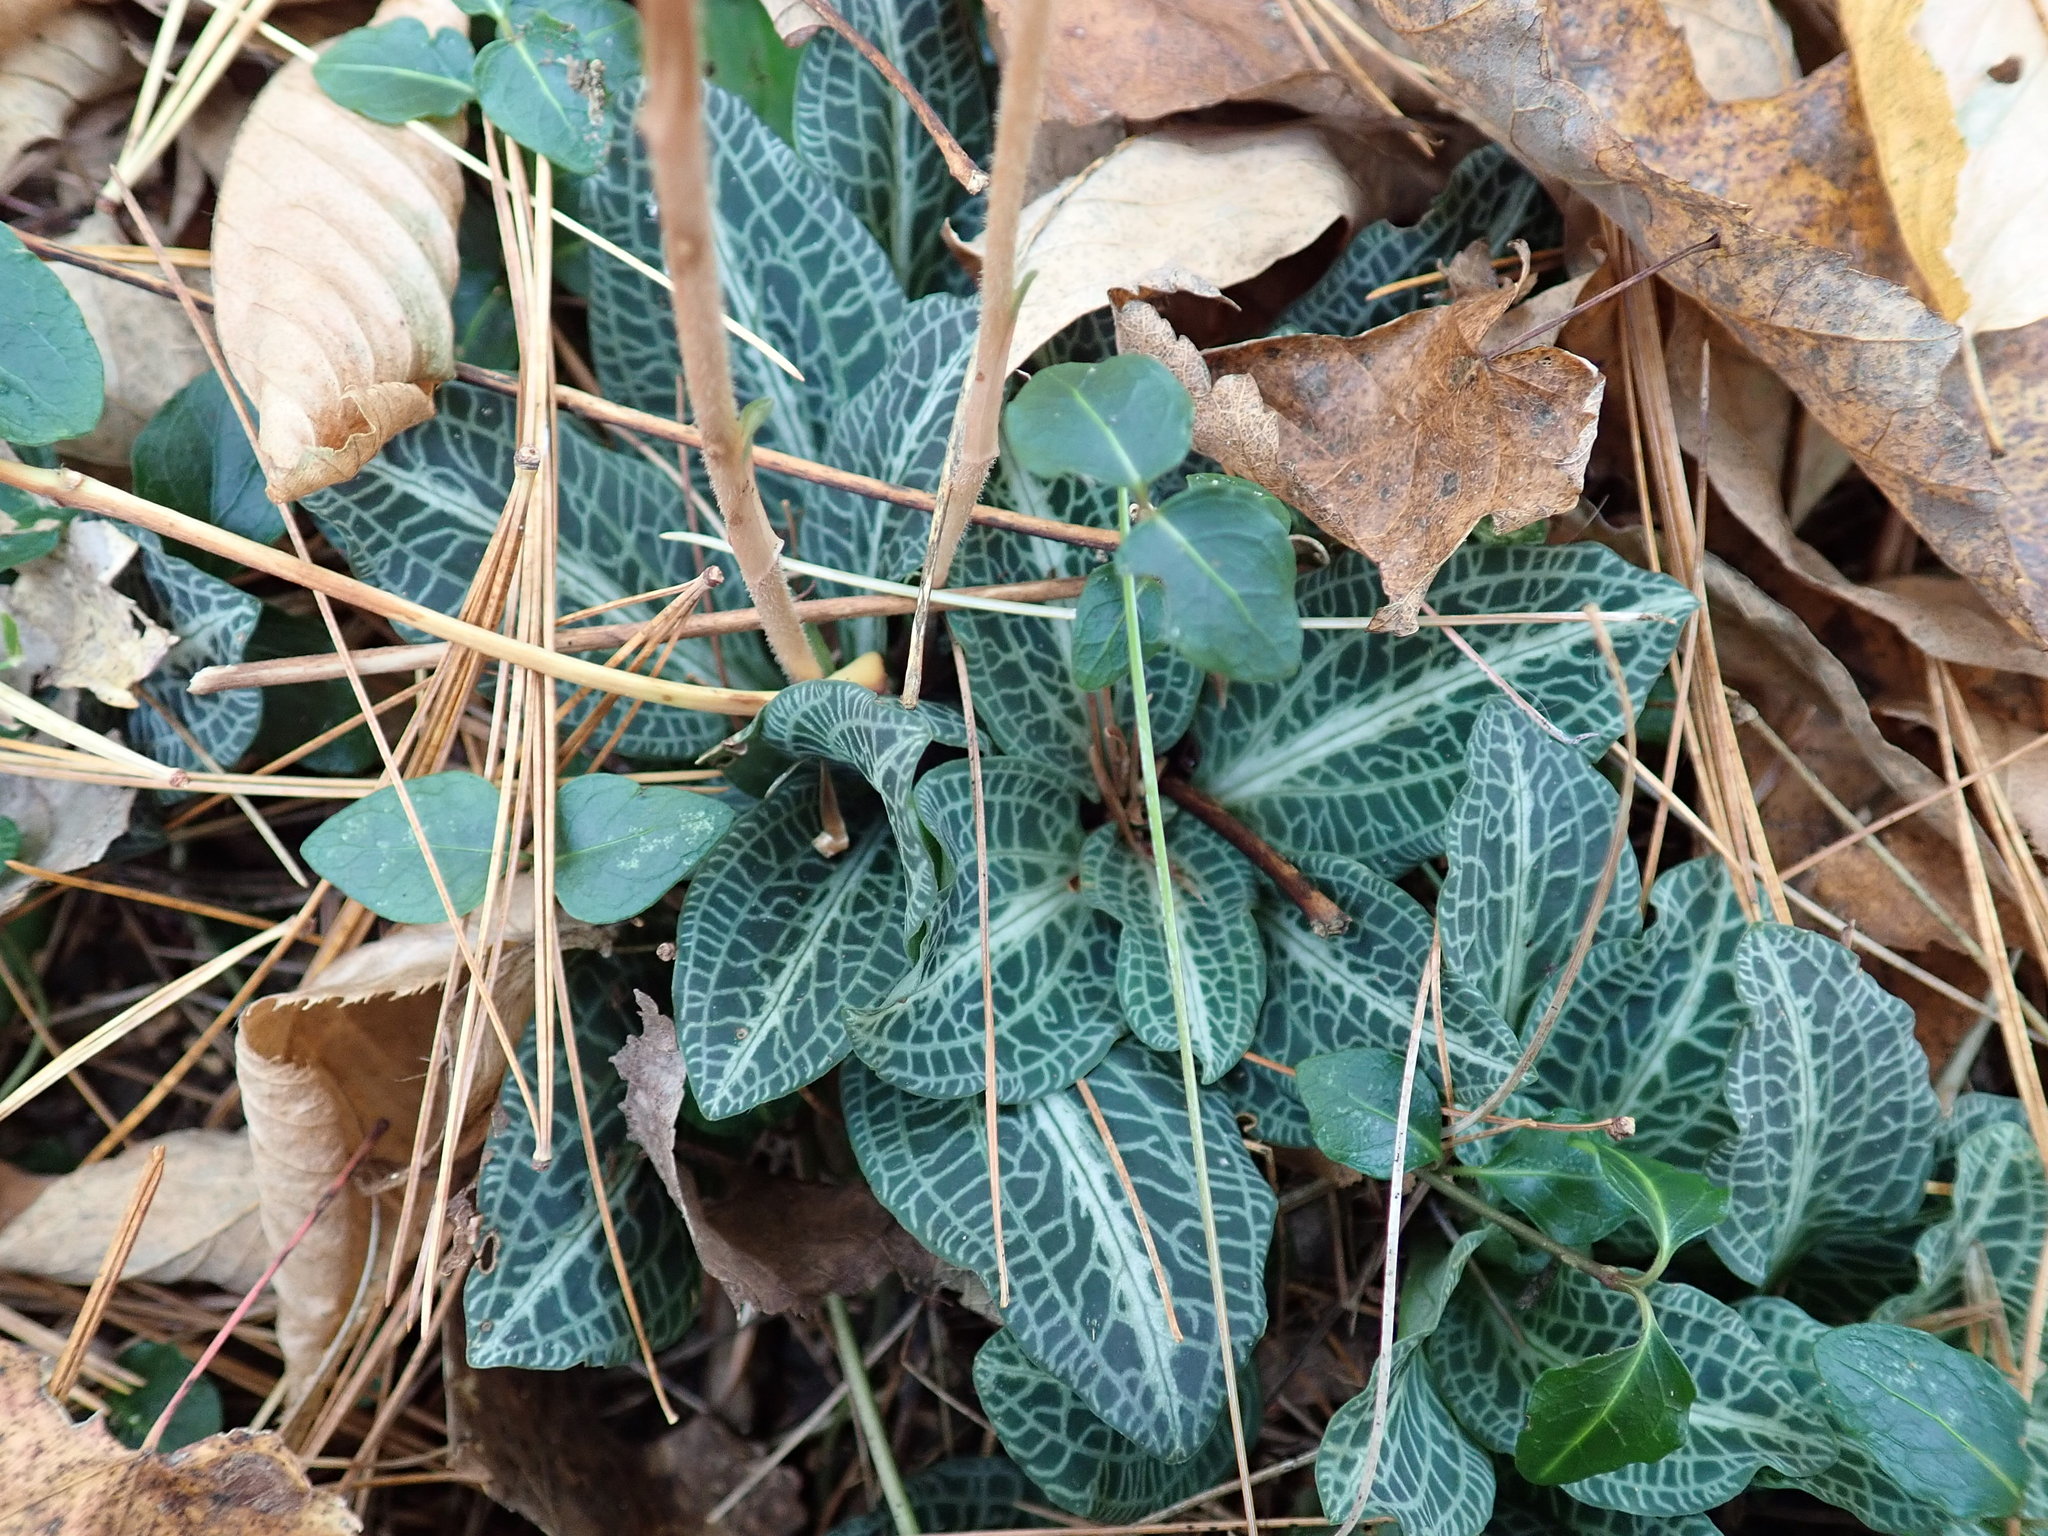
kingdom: Plantae
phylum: Tracheophyta
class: Liliopsida
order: Asparagales
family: Orchidaceae
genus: Goodyera
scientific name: Goodyera pubescens
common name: Downy rattlesnake-plantain
